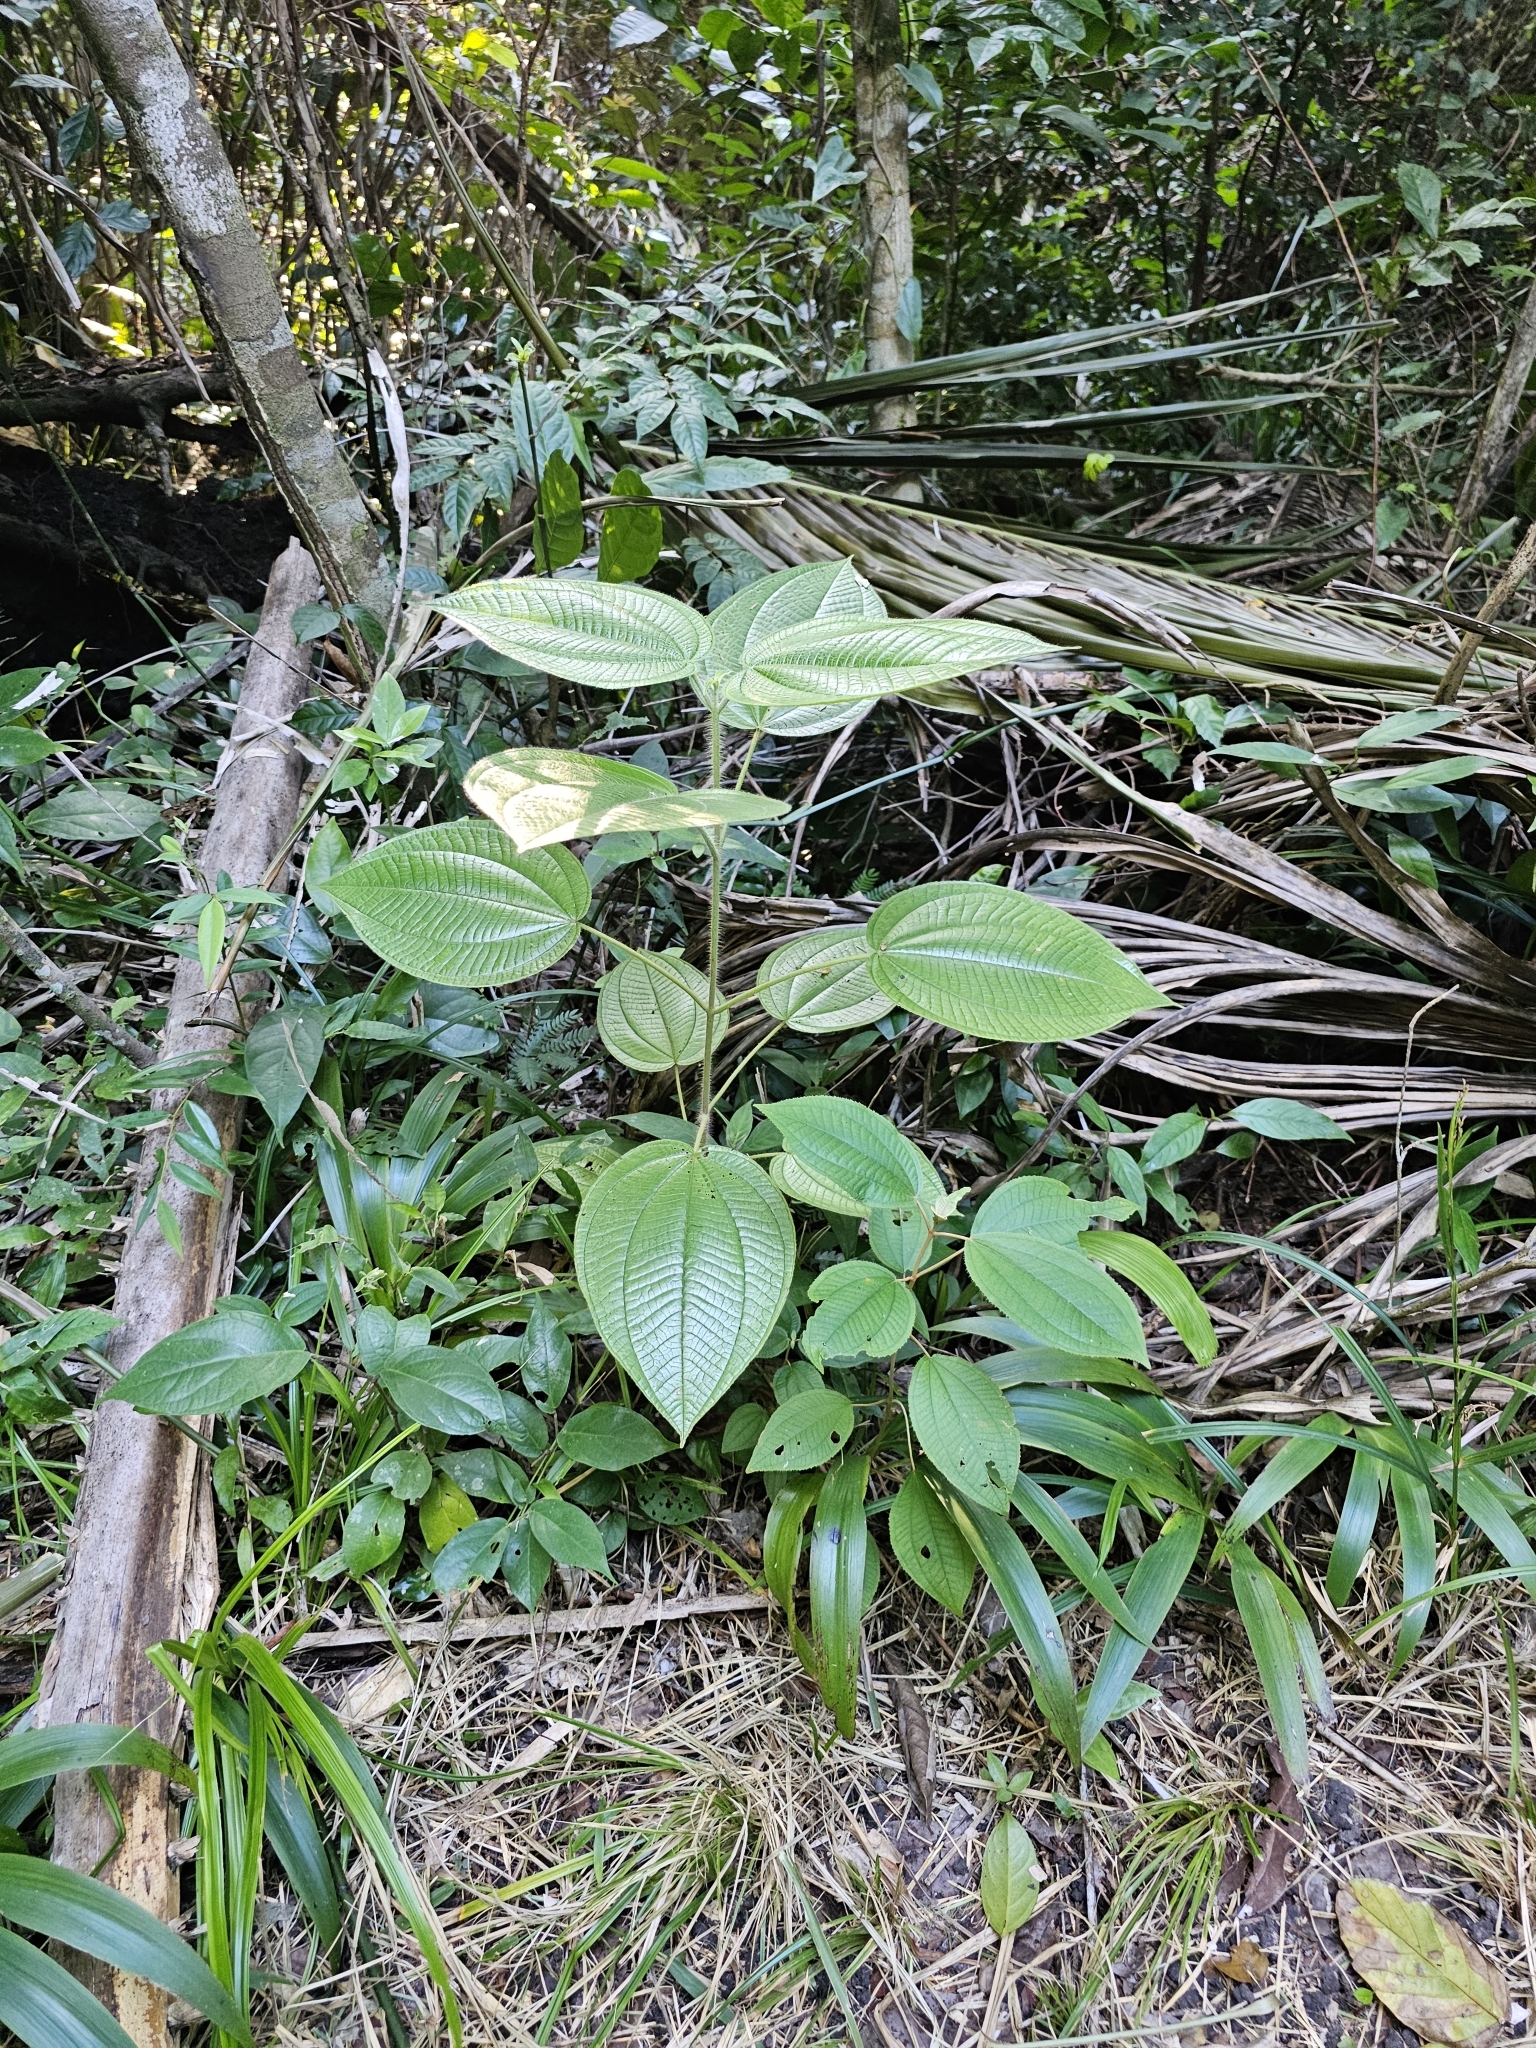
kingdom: Plantae
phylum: Tracheophyta
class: Magnoliopsida
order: Myrtales
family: Melastomataceae
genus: Miconia
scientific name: Miconia octona
